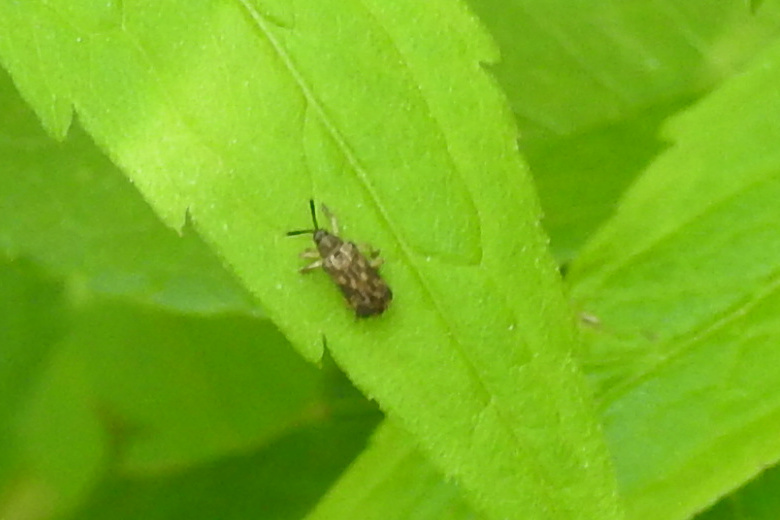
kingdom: Animalia
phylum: Arthropoda
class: Insecta
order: Coleoptera
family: Chrysomelidae
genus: Sumitrosis
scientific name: Sumitrosis inaequalis
